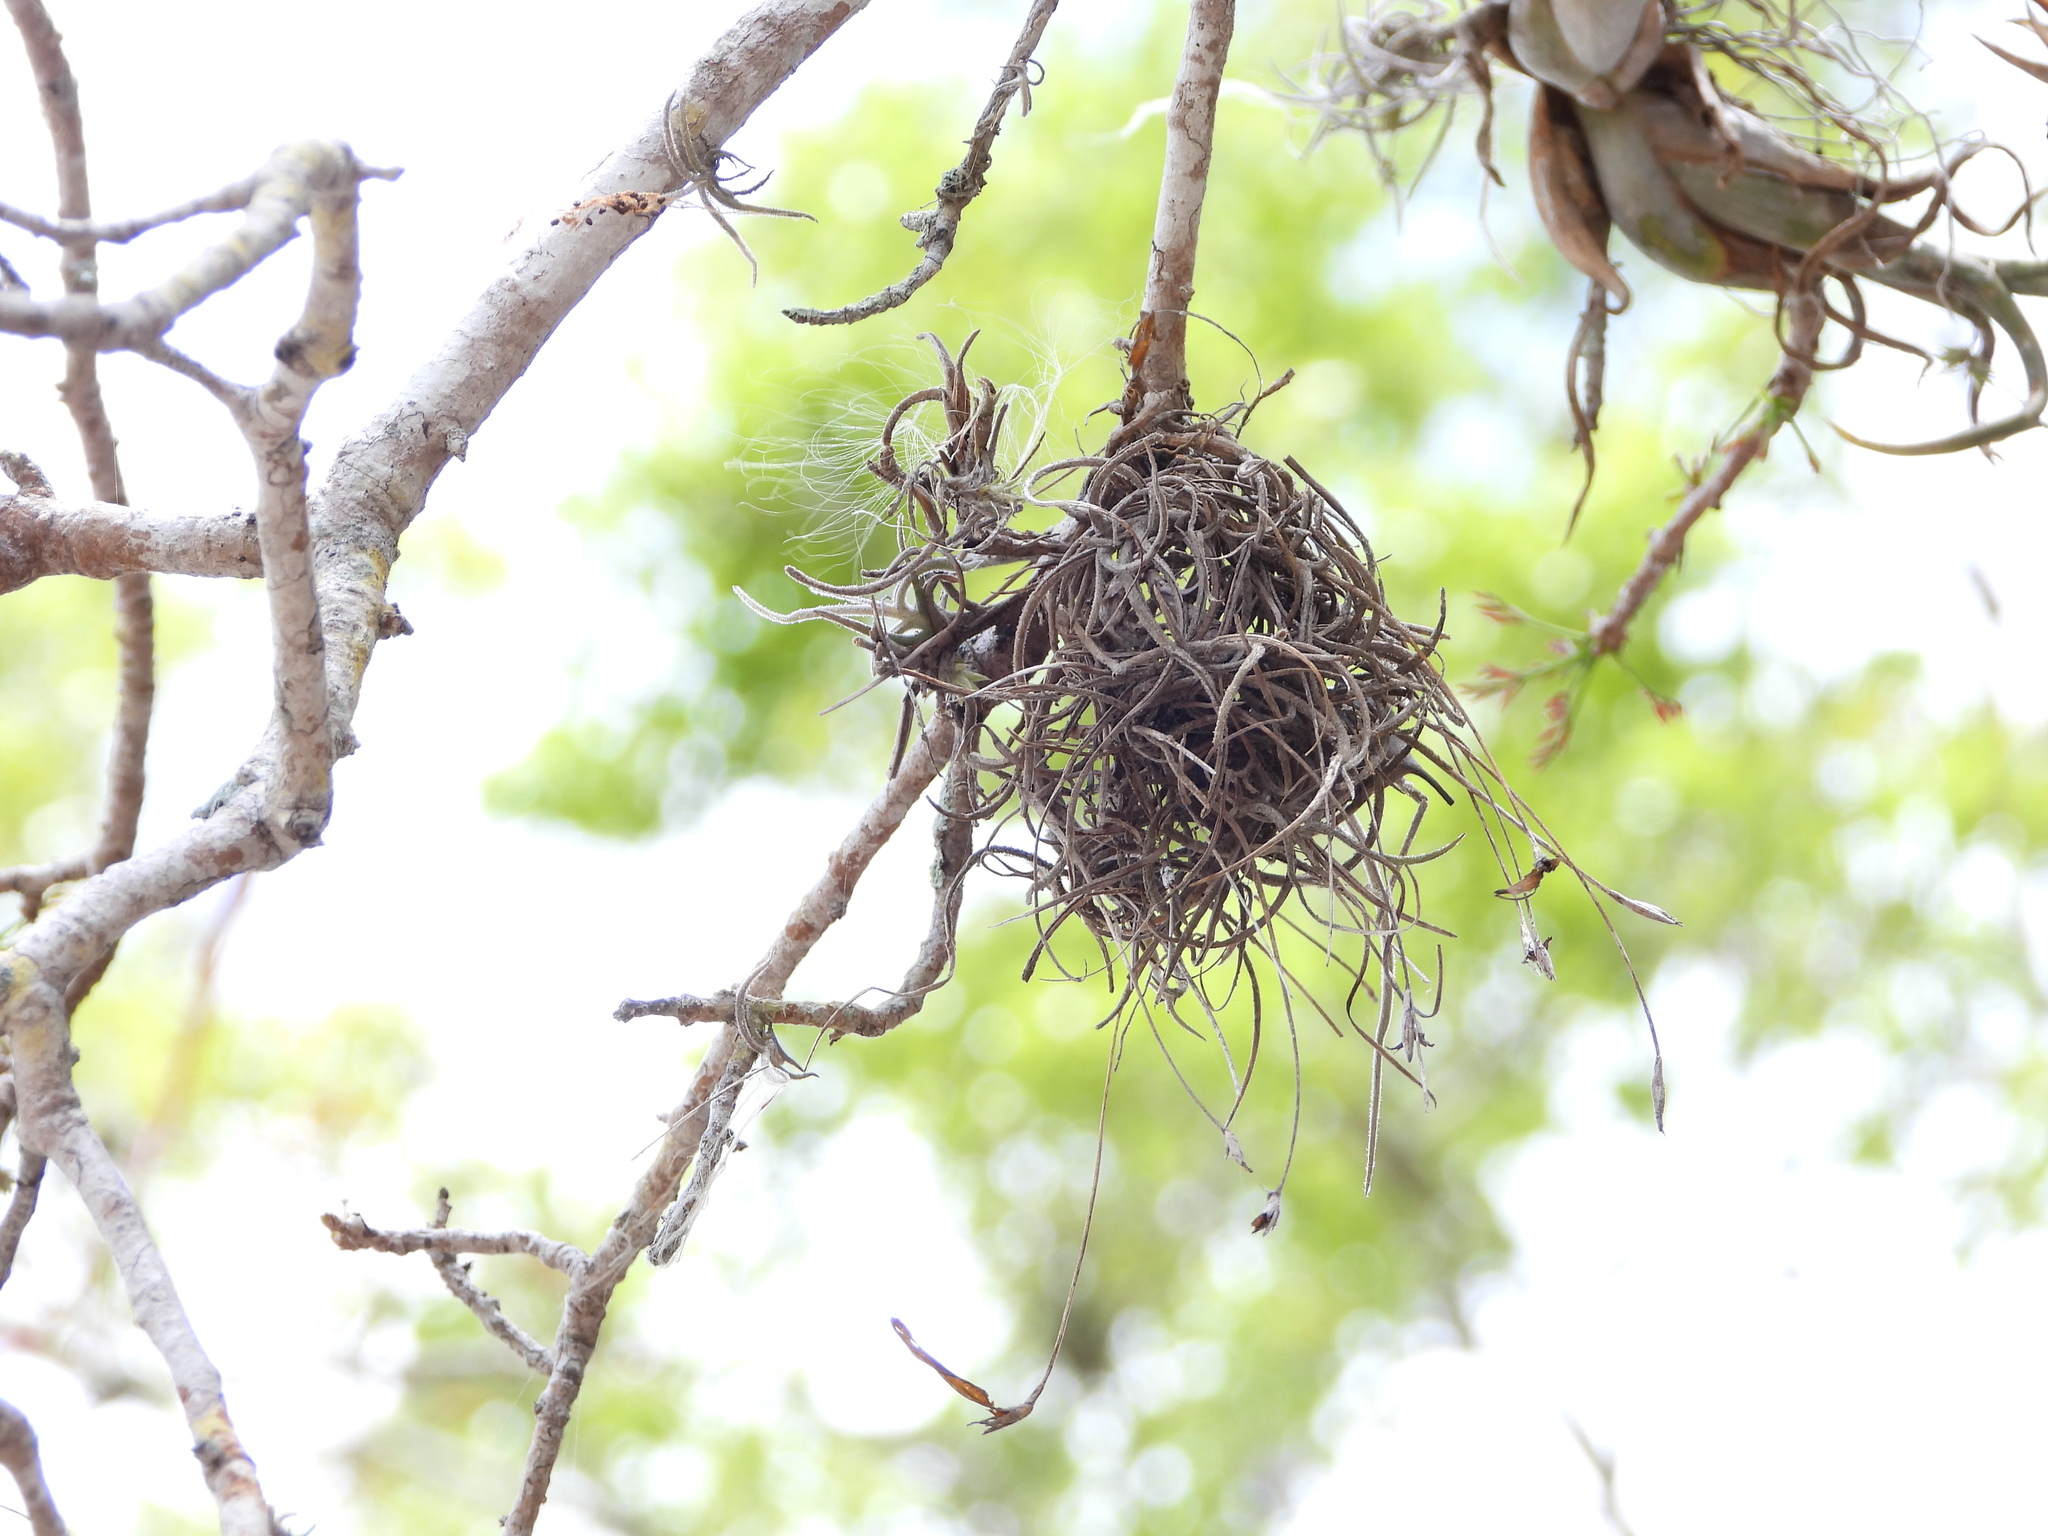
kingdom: Plantae
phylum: Tracheophyta
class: Liliopsida
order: Poales
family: Bromeliaceae
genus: Tillandsia
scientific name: Tillandsia recurvata
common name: Small ballmoss
